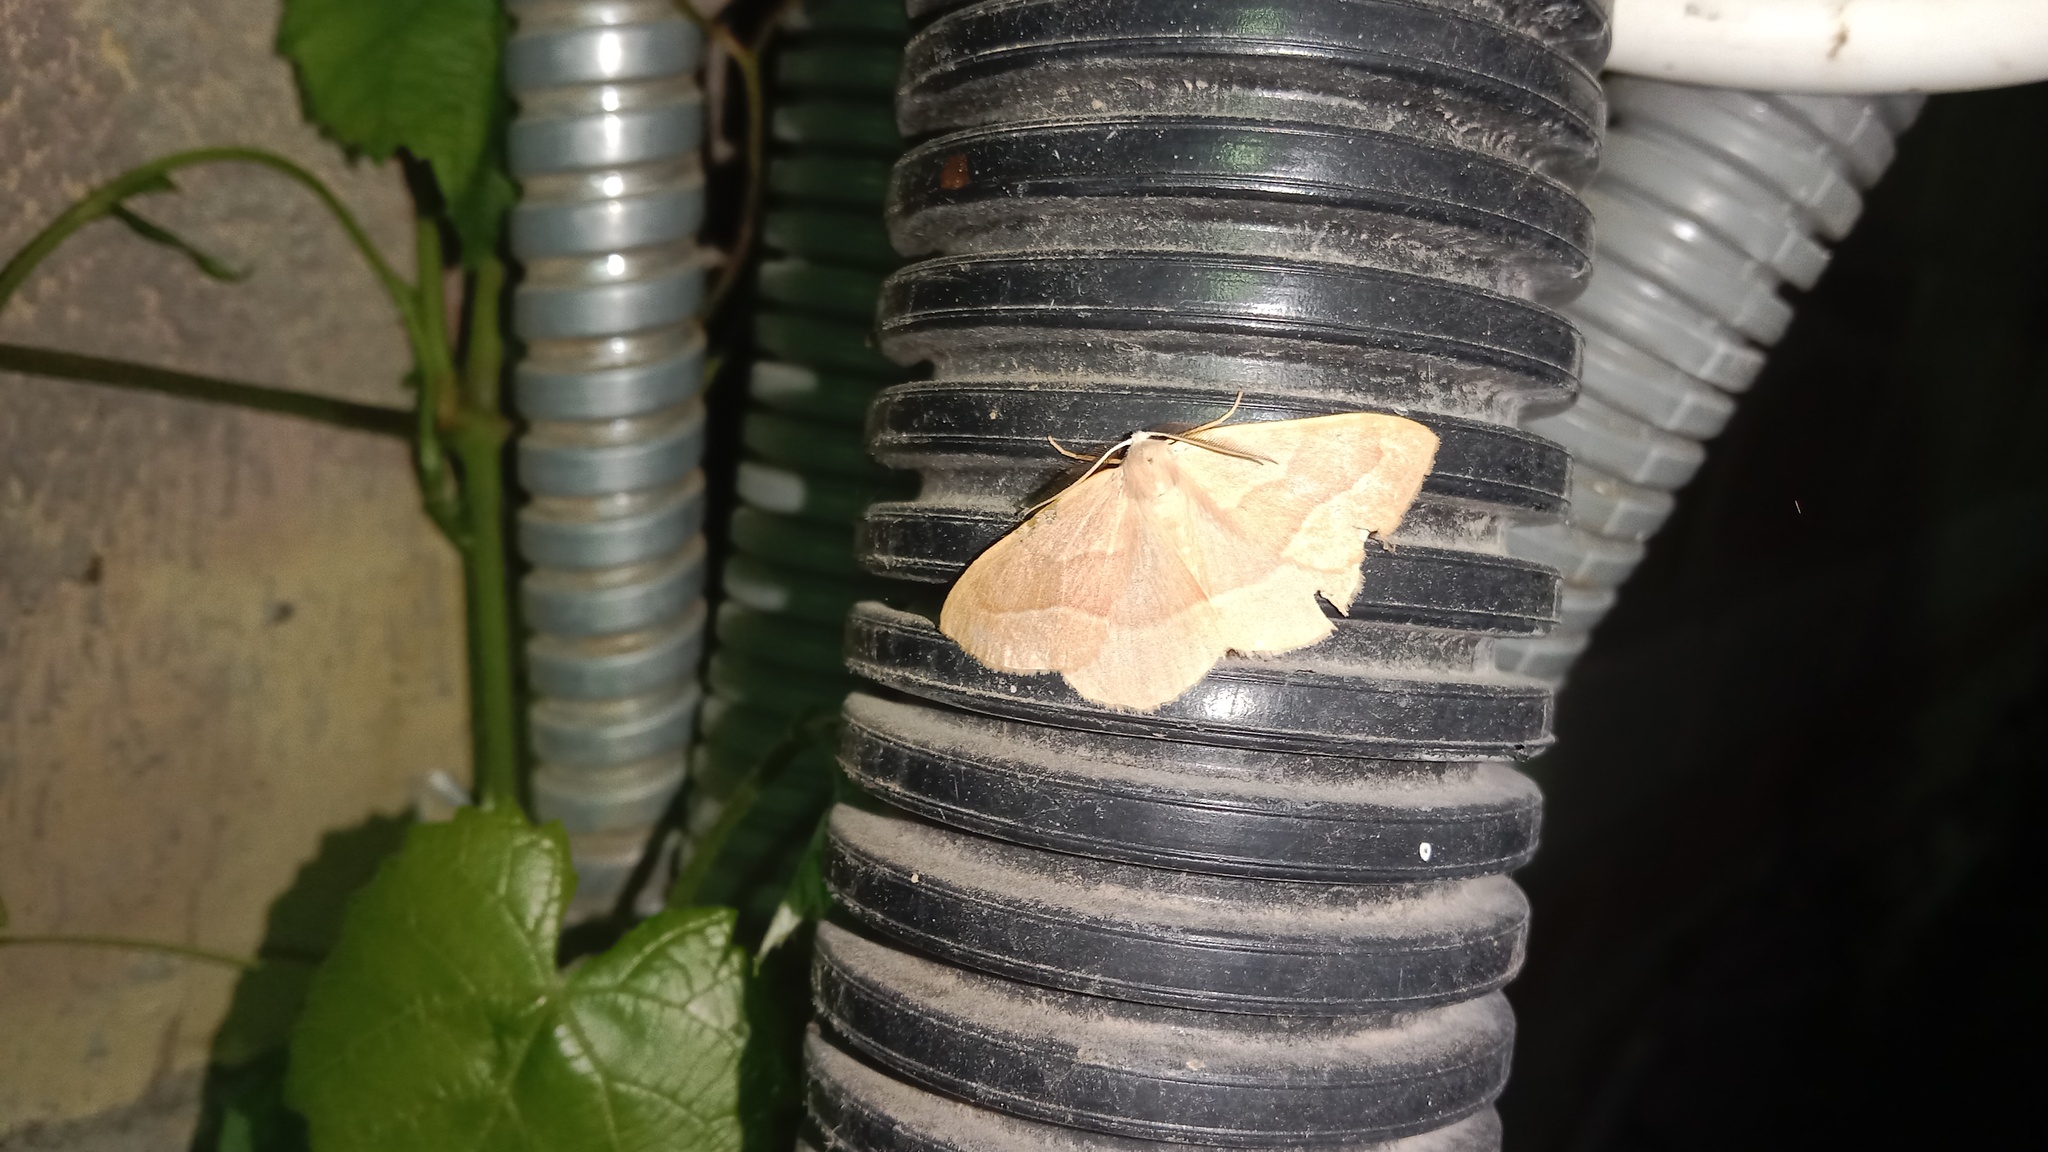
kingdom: Animalia
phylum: Arthropoda
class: Insecta
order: Lepidoptera
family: Geometridae
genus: Hylaea
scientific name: Hylaea fasciaria
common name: Barred red
